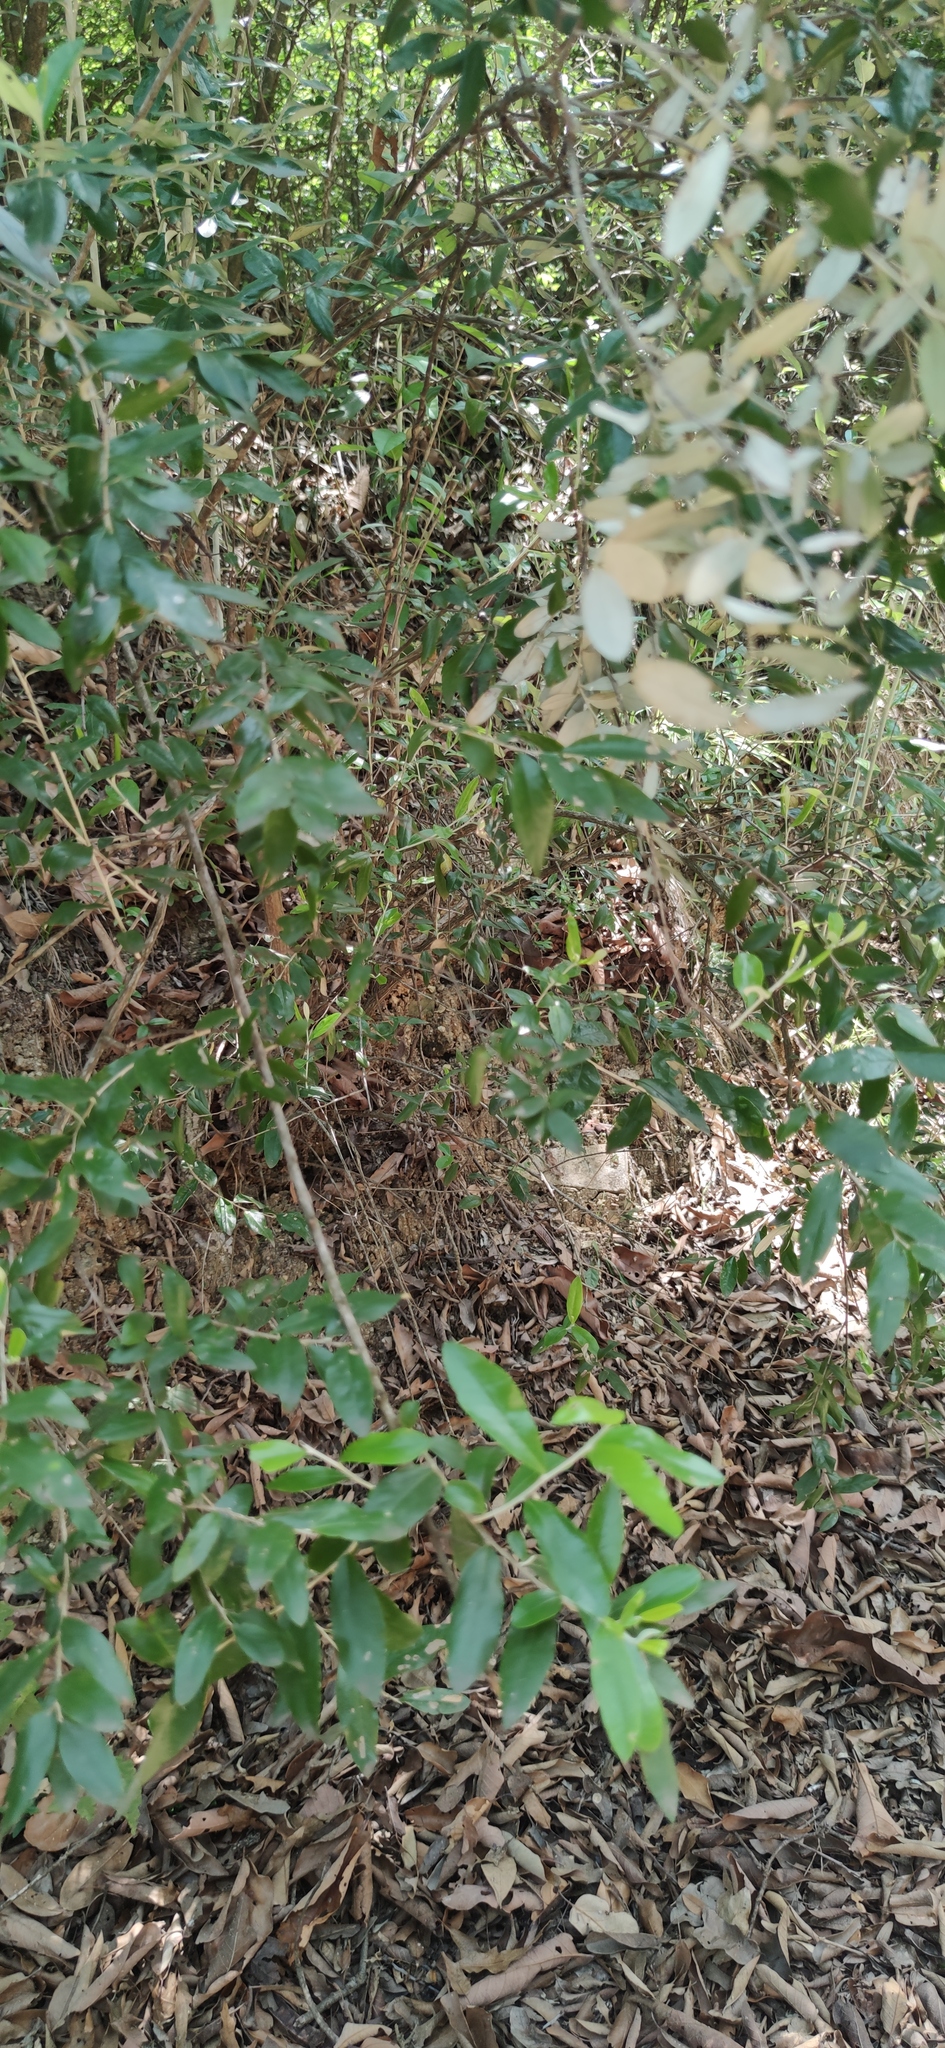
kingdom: Plantae
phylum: Tracheophyta
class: Magnoliopsida
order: Asterales
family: Asteraceae
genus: Nahuatlea
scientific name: Nahuatlea hypoleuca
